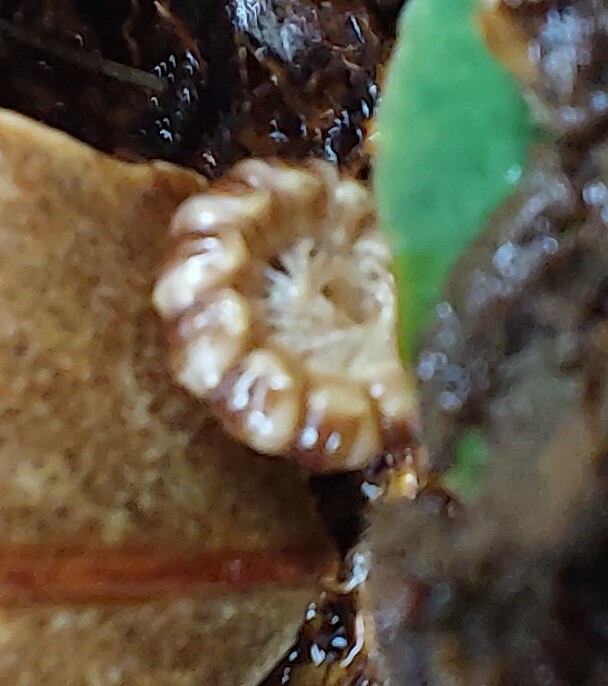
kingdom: Animalia
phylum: Arthropoda
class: Diplopoda
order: Polydesmida
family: Paradoxosomatidae
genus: Oxidus
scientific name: Oxidus gracilis
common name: Greenhouse millipede
